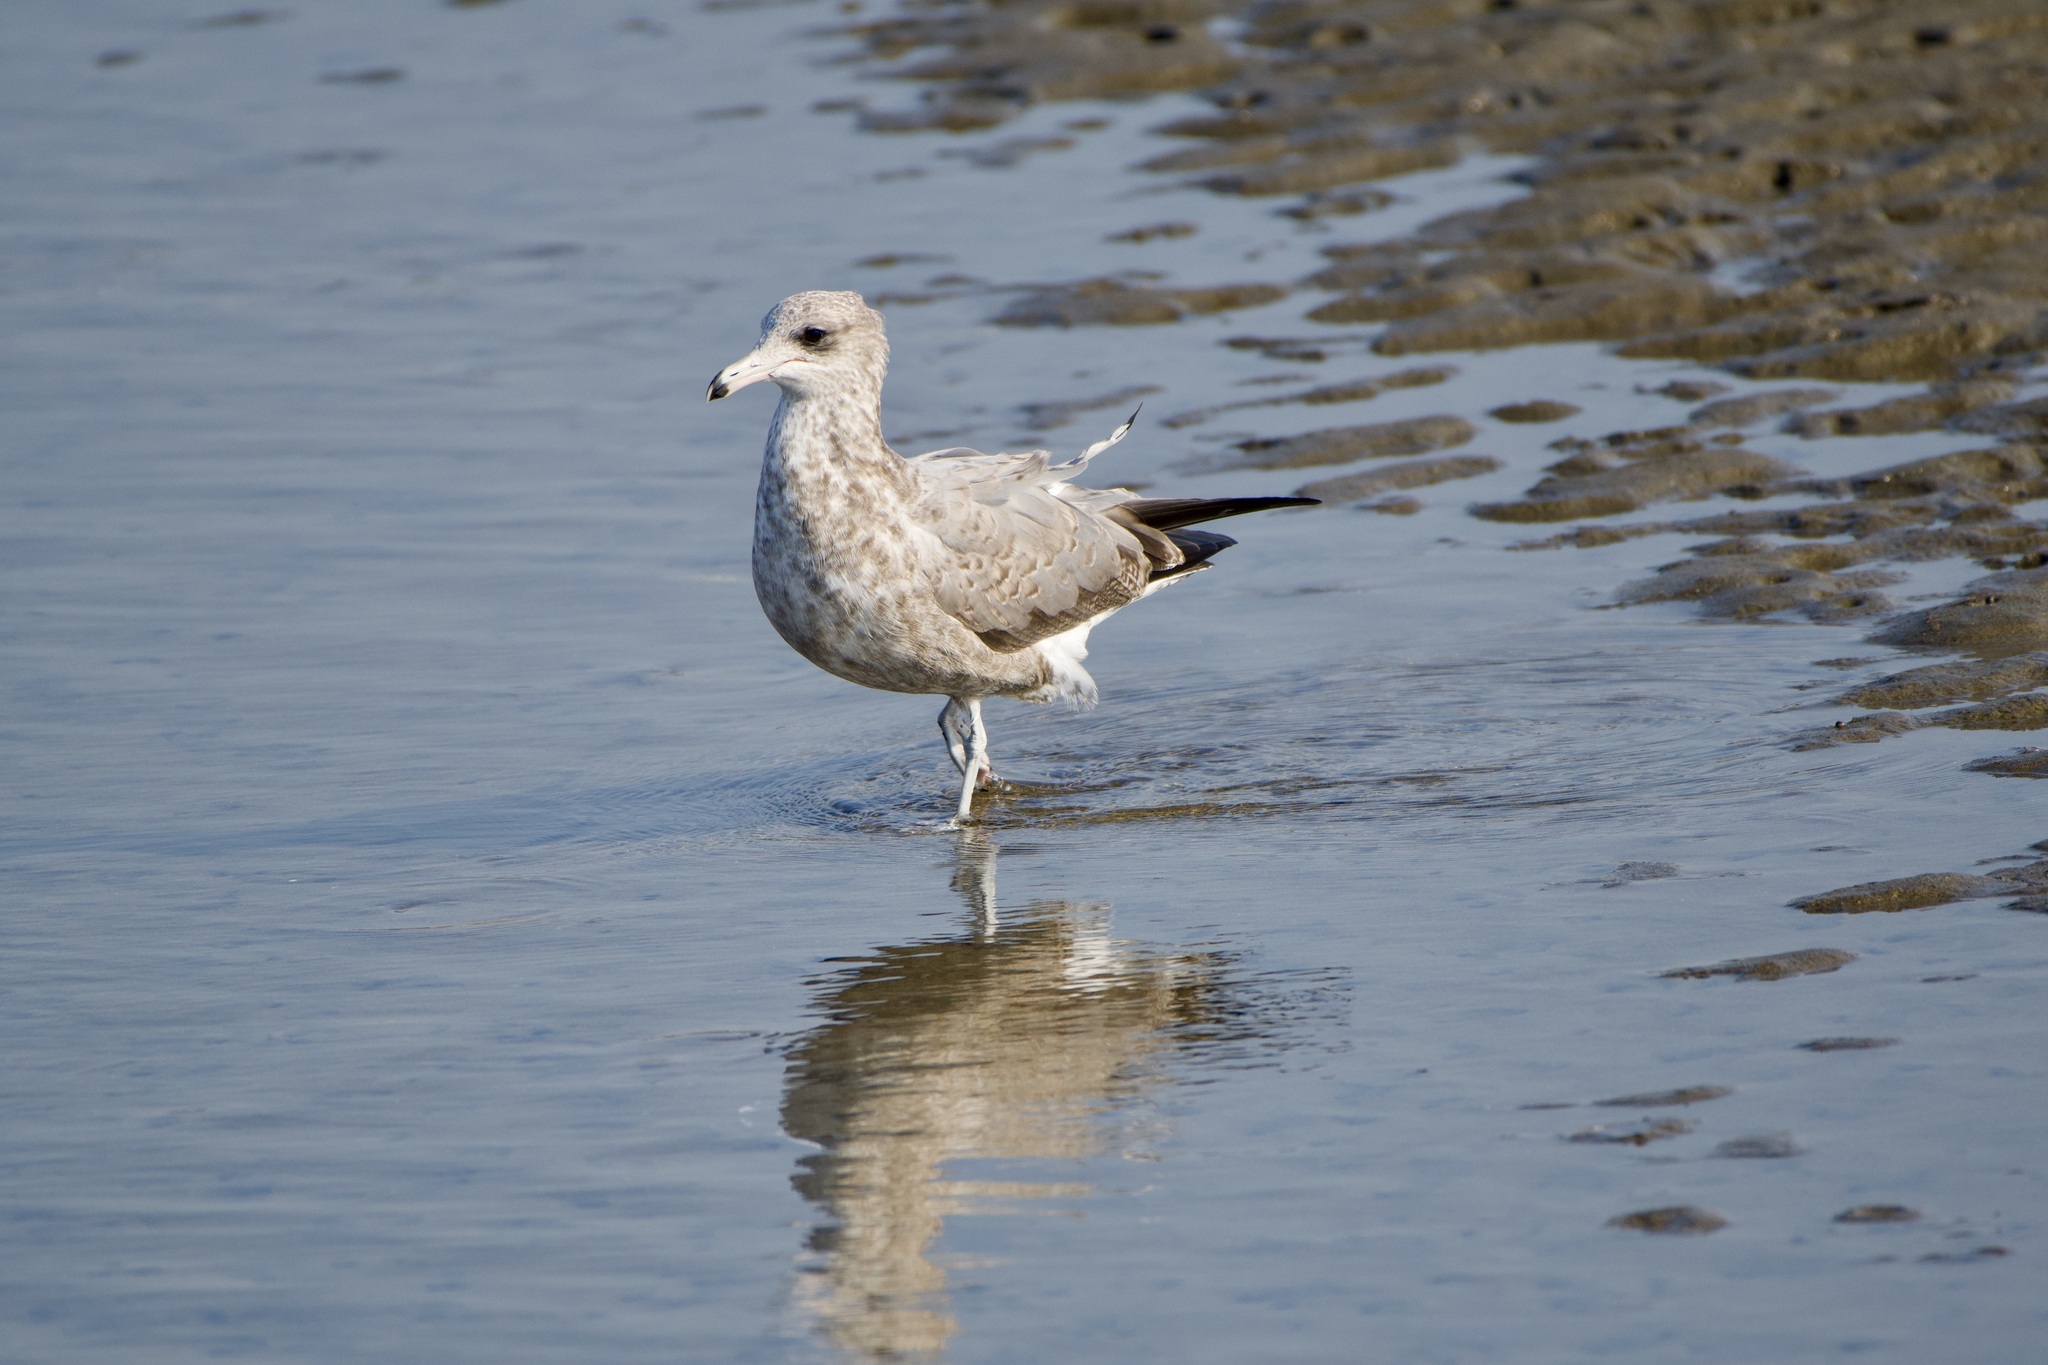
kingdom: Animalia
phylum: Chordata
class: Aves
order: Charadriiformes
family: Laridae
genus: Larus
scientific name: Larus californicus
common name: California gull
